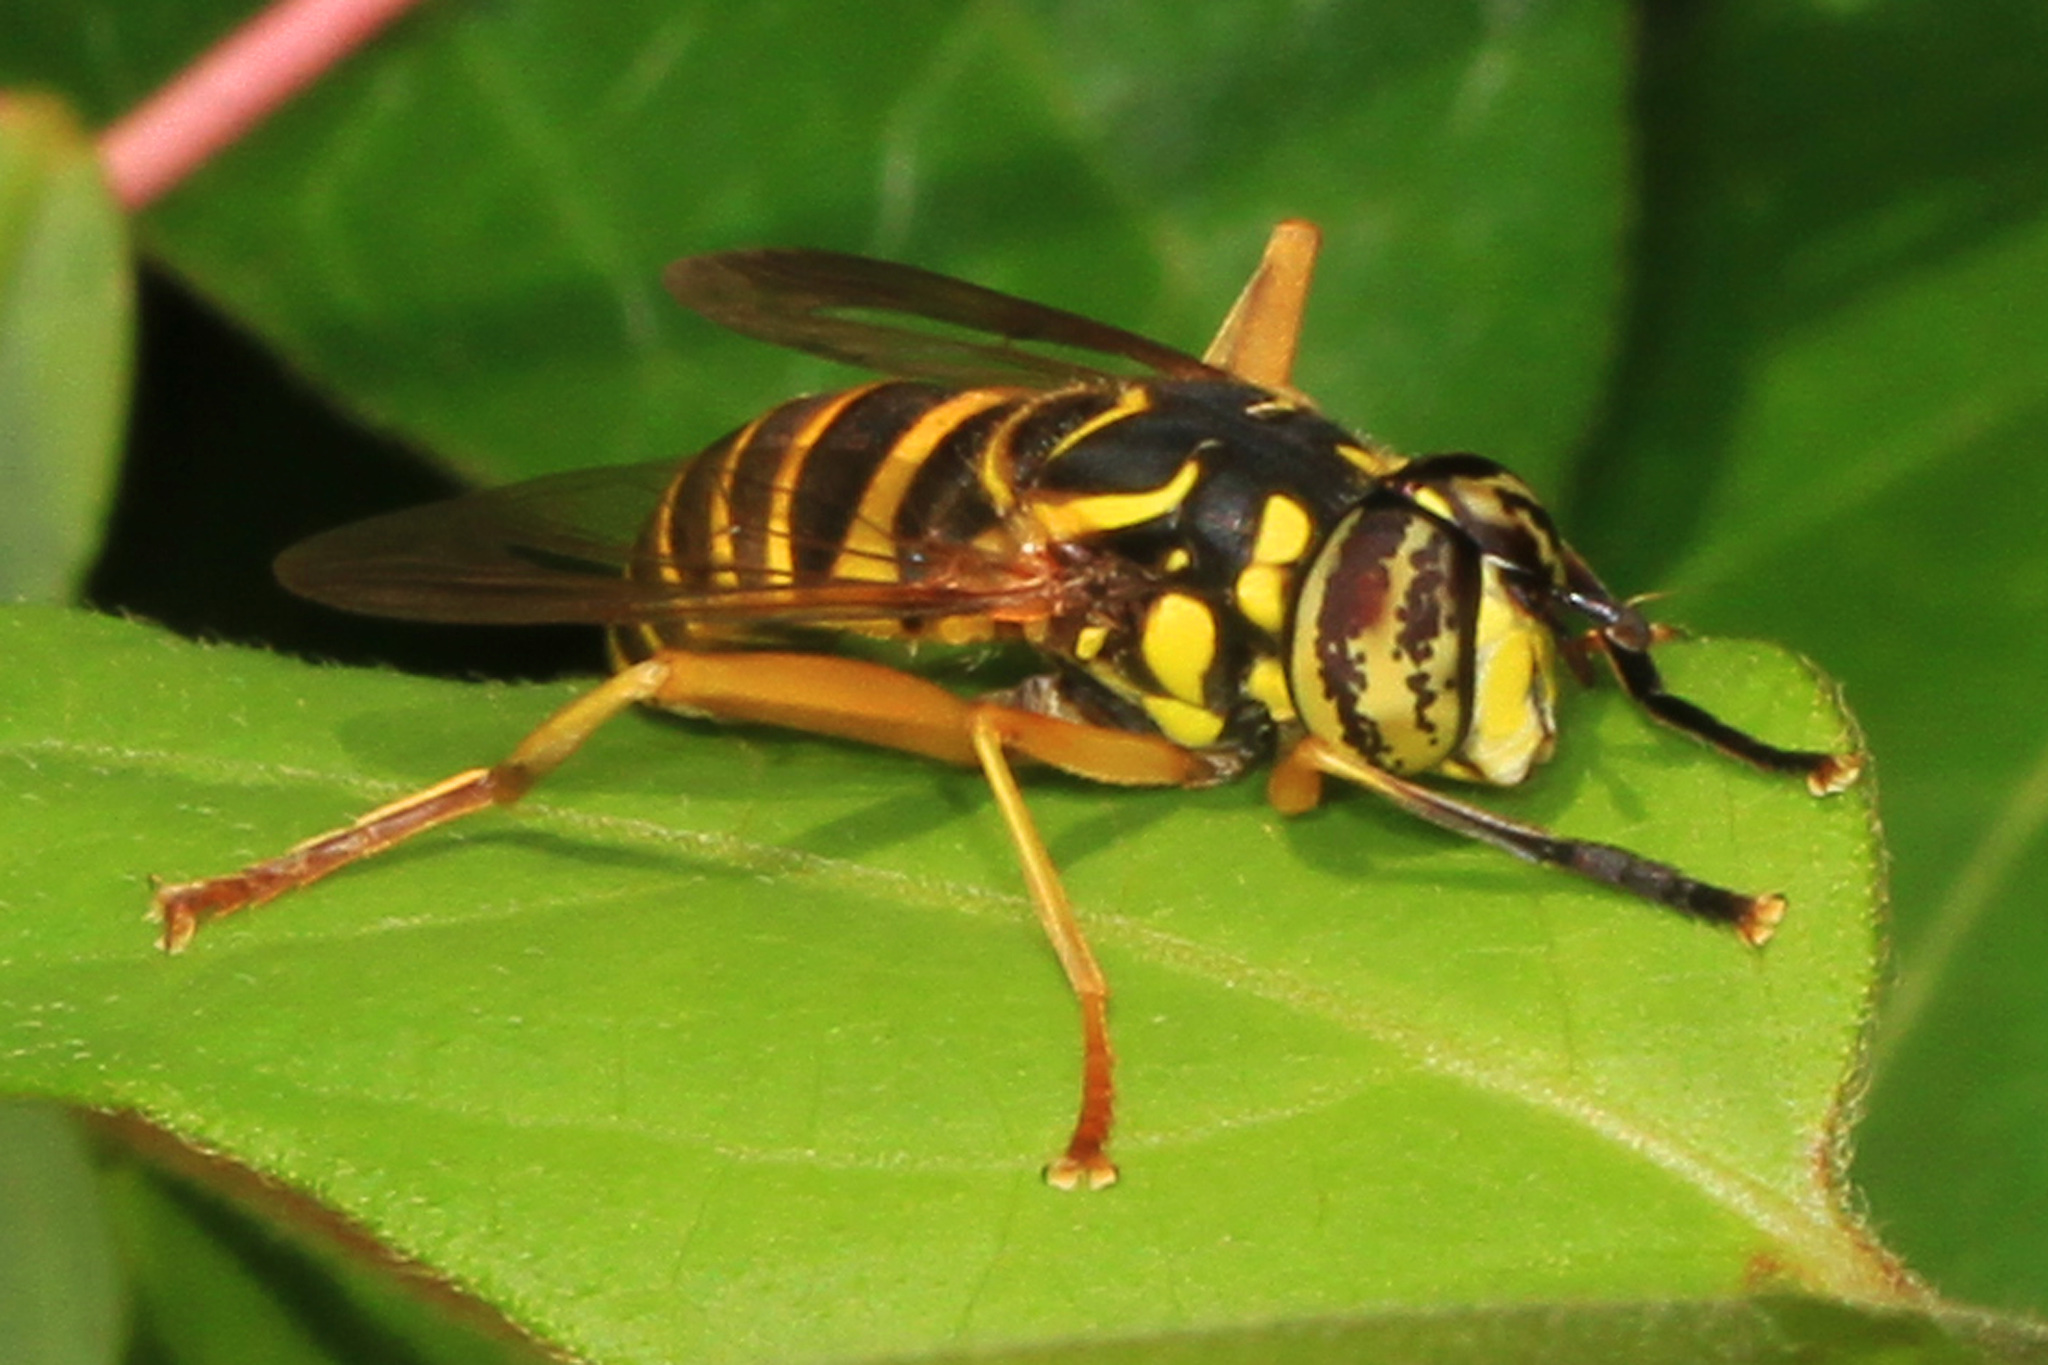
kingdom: Animalia
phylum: Arthropoda
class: Insecta
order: Diptera
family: Syrphidae
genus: Spilomyia
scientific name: Spilomyia longicornis
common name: Eastern hornet fly
